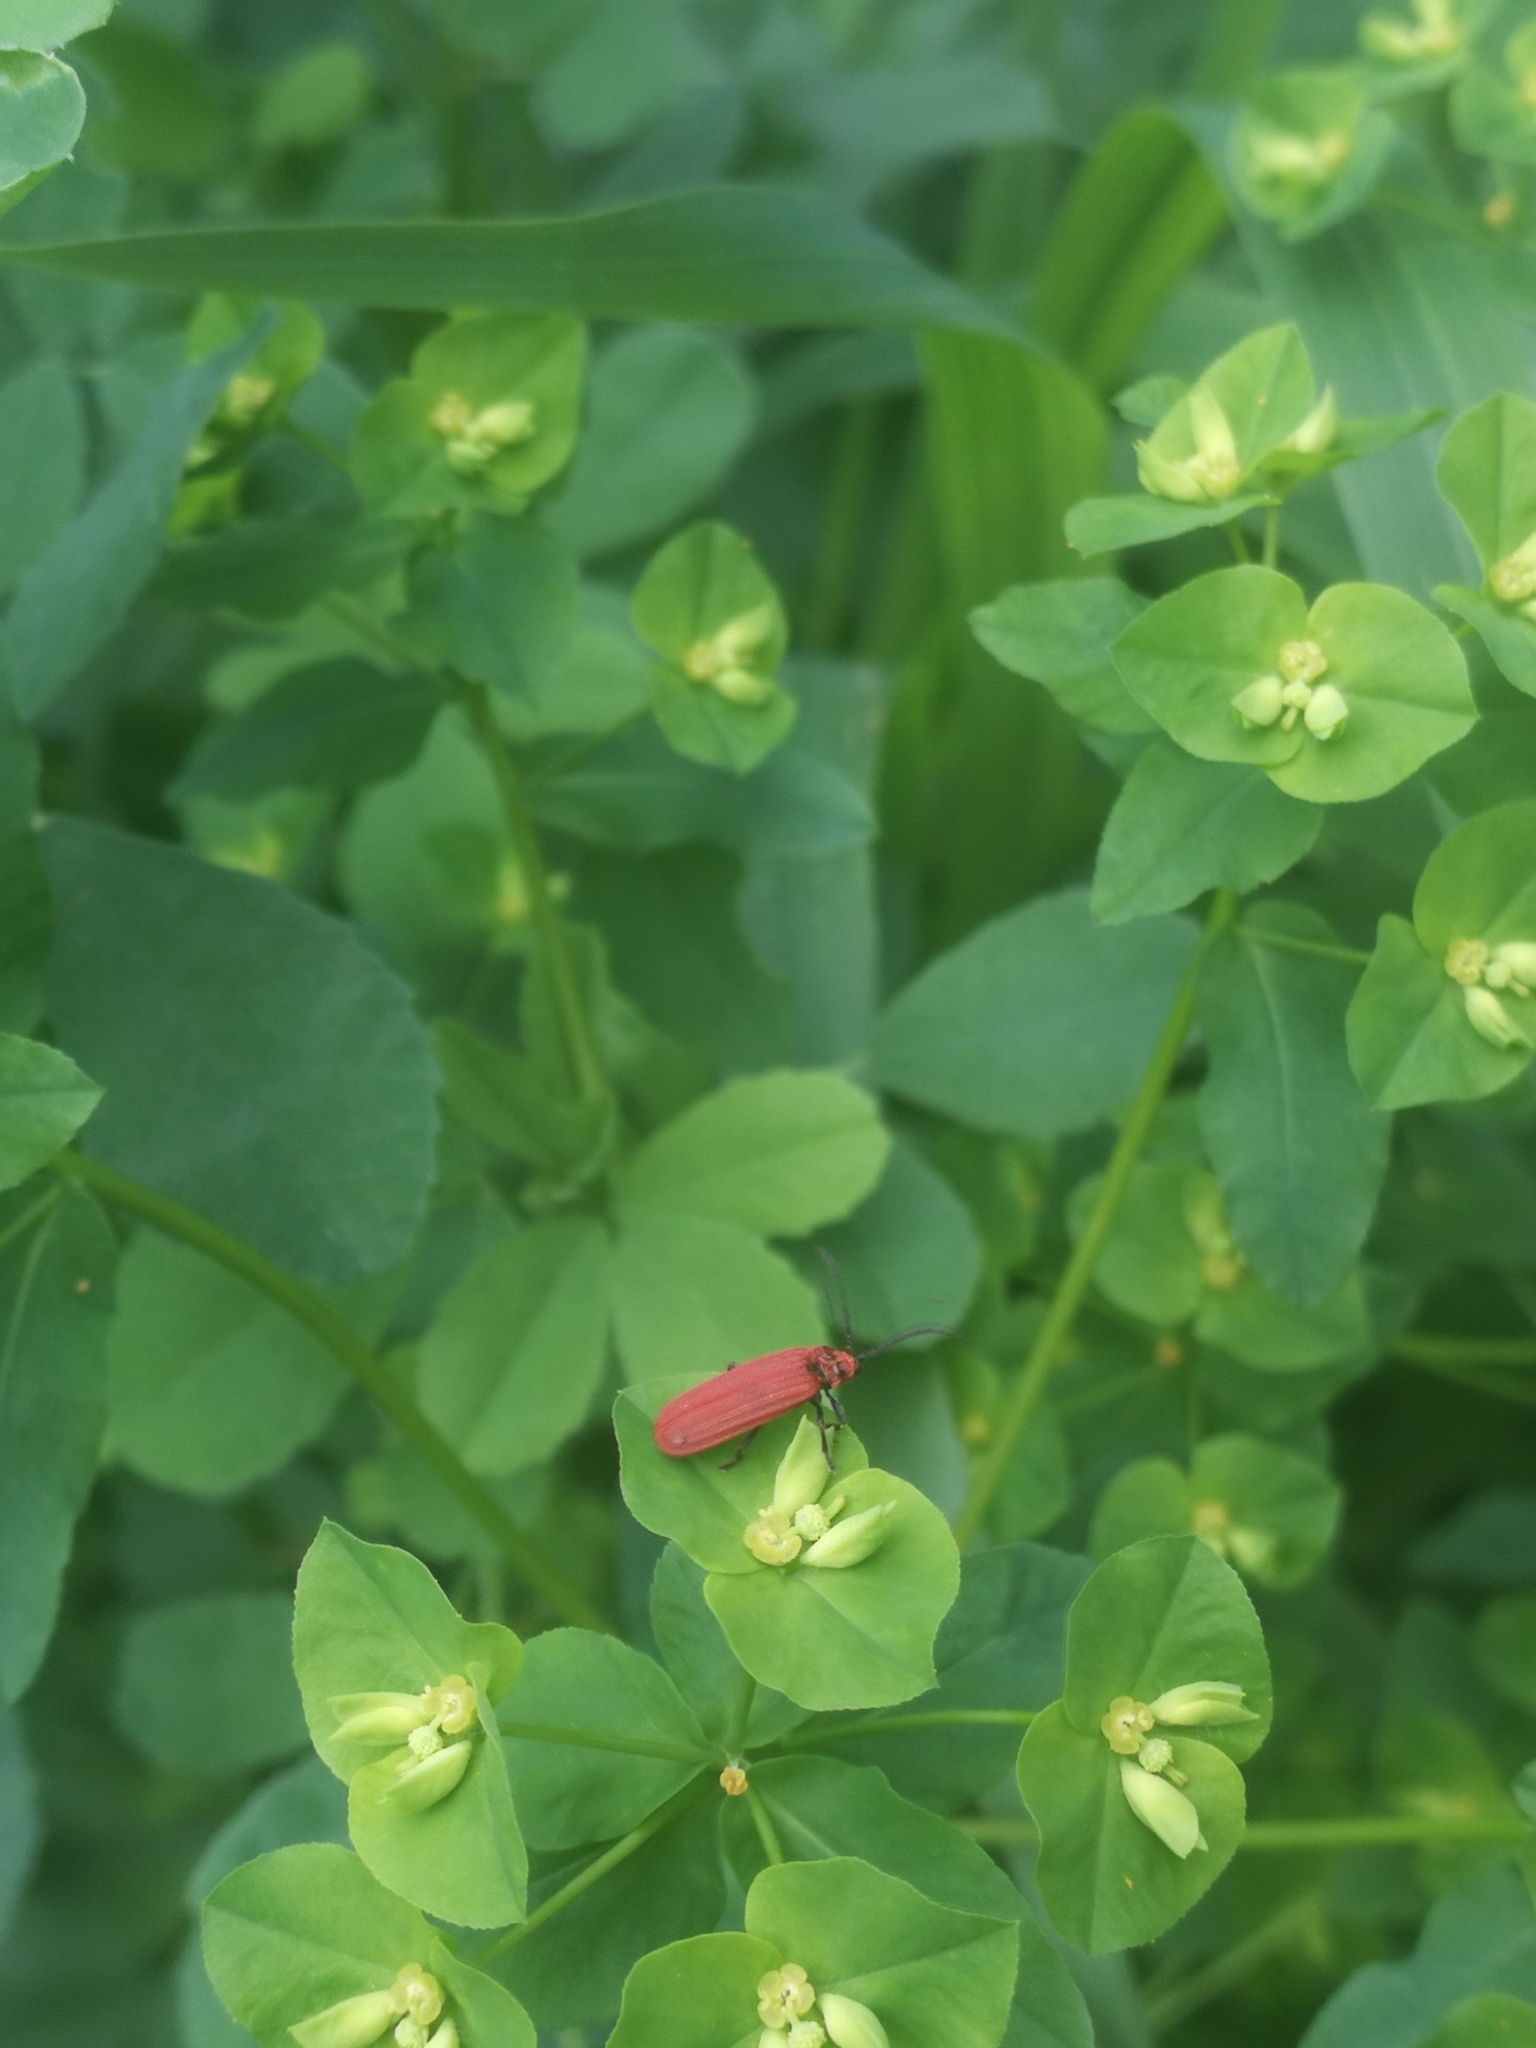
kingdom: Animalia
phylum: Arthropoda
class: Insecta
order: Coleoptera
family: Lycidae
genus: Lopheros
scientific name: Lopheros rubens
